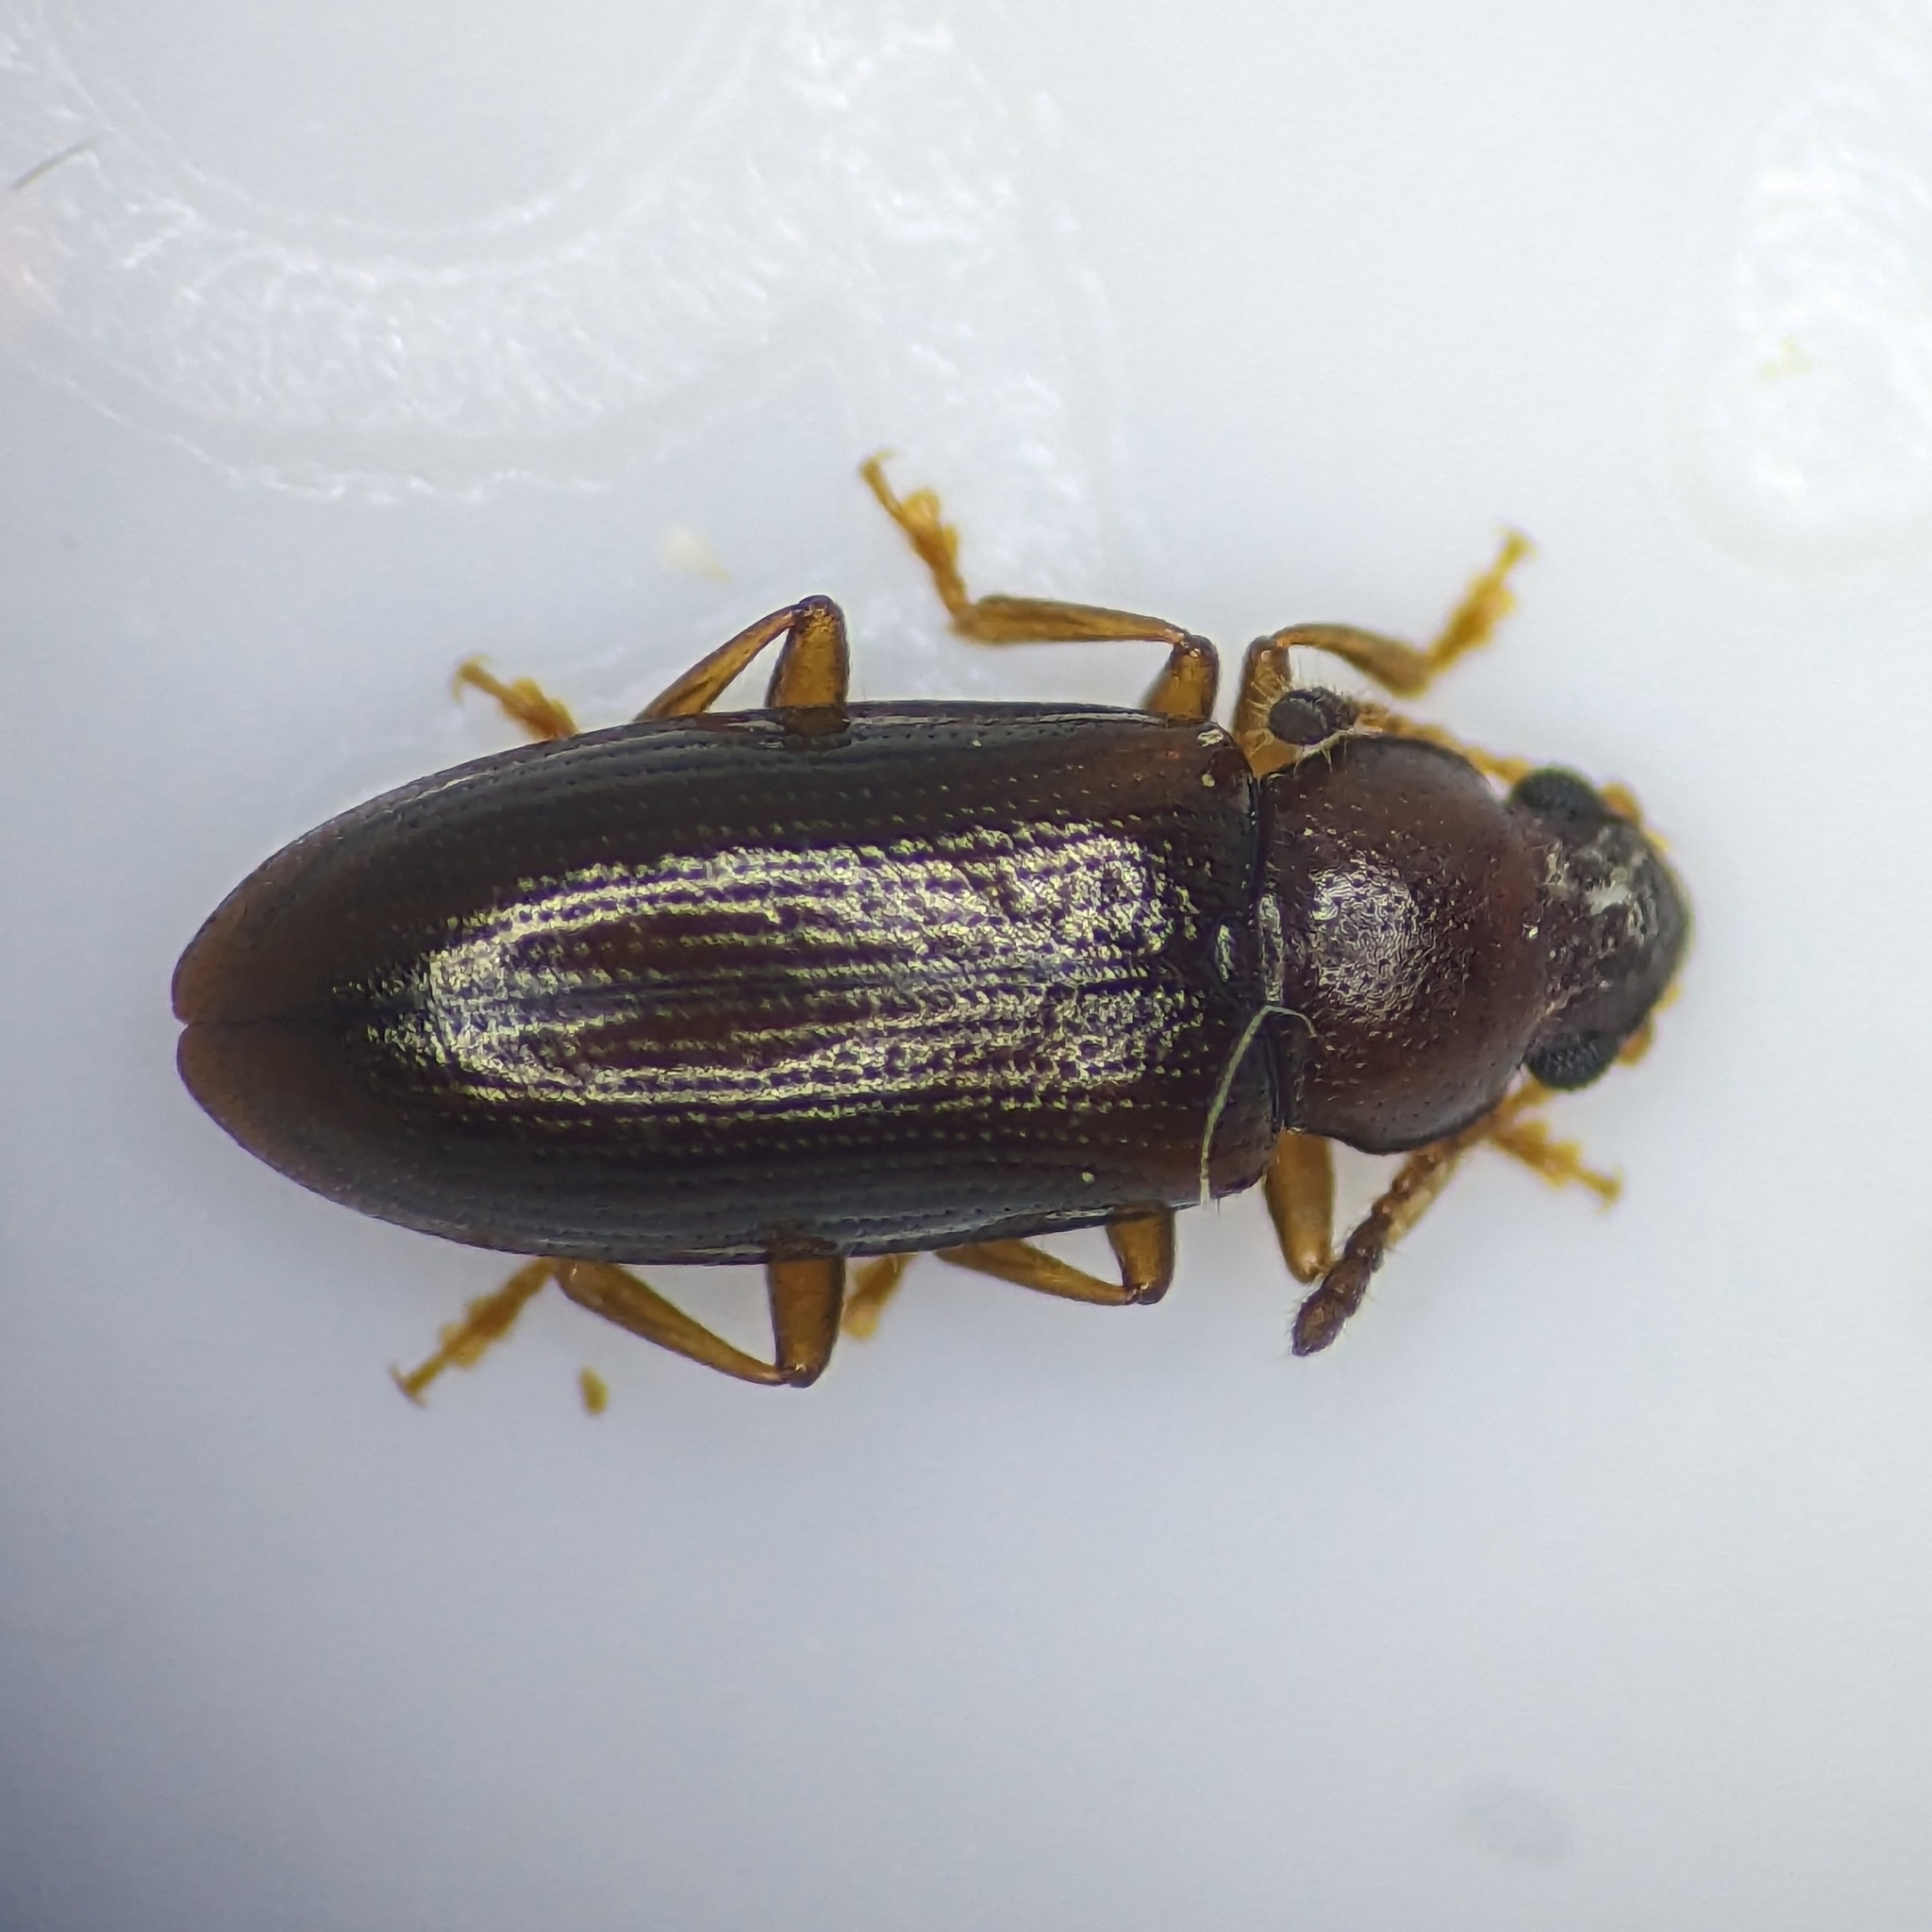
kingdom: Animalia
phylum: Arthropoda
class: Insecta
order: Coleoptera
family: Erotylidae
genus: Loberus
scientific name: Loberus depressus
